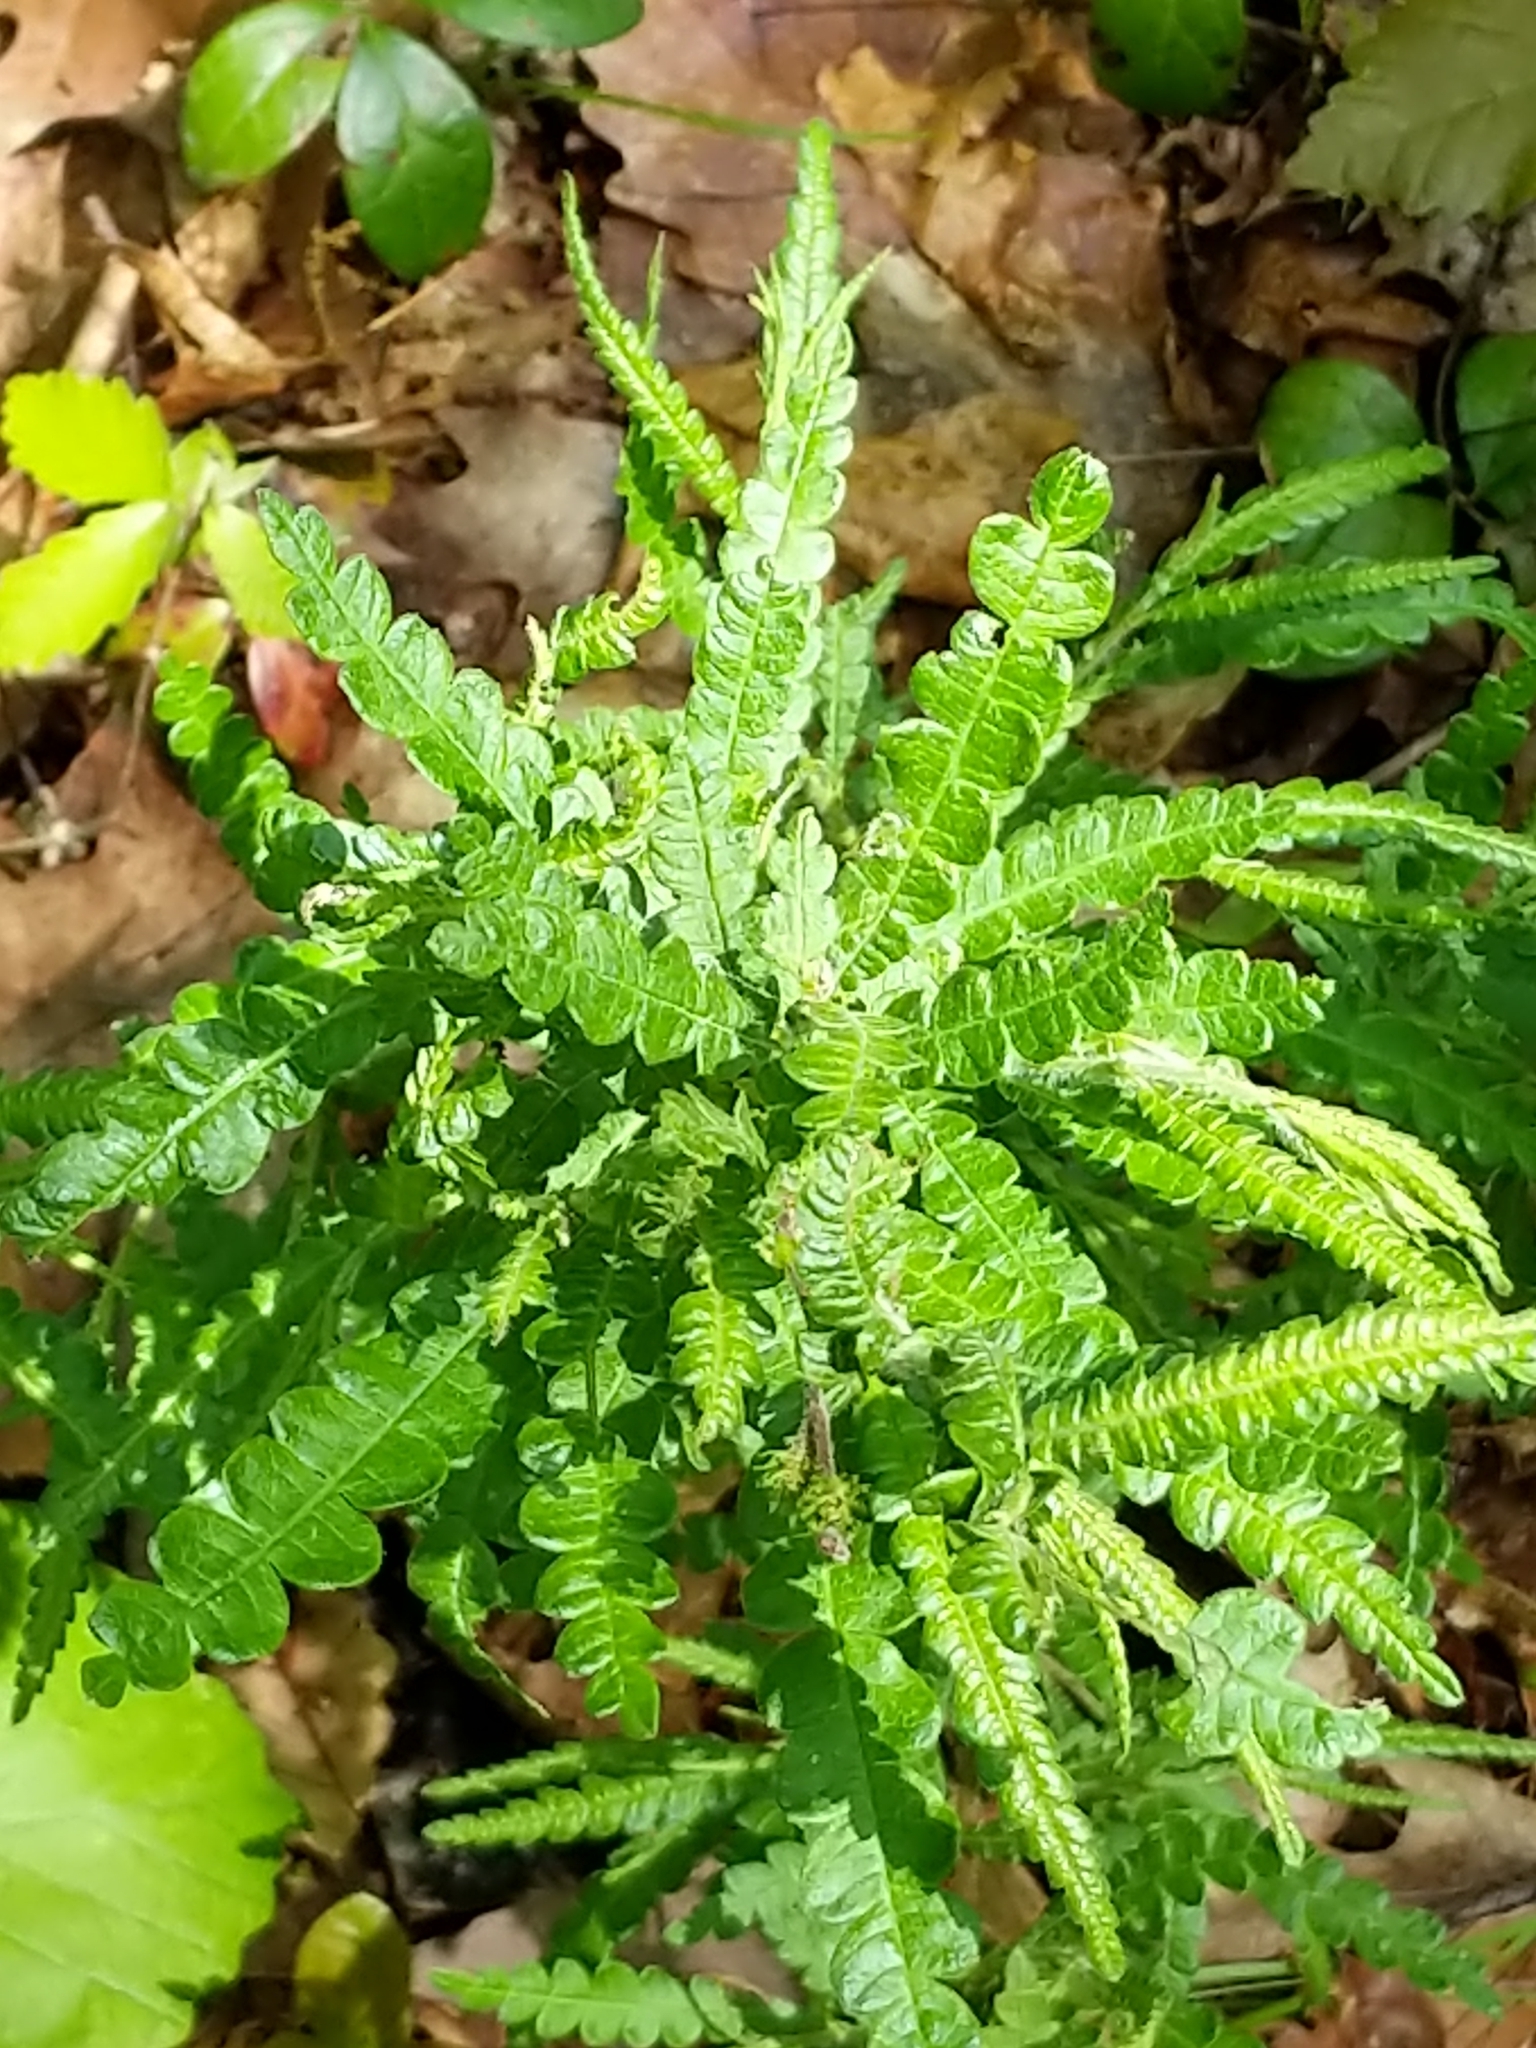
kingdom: Plantae
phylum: Tracheophyta
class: Magnoliopsida
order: Fagales
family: Myricaceae
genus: Comptonia
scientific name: Comptonia peregrina
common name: Sweet-fern
